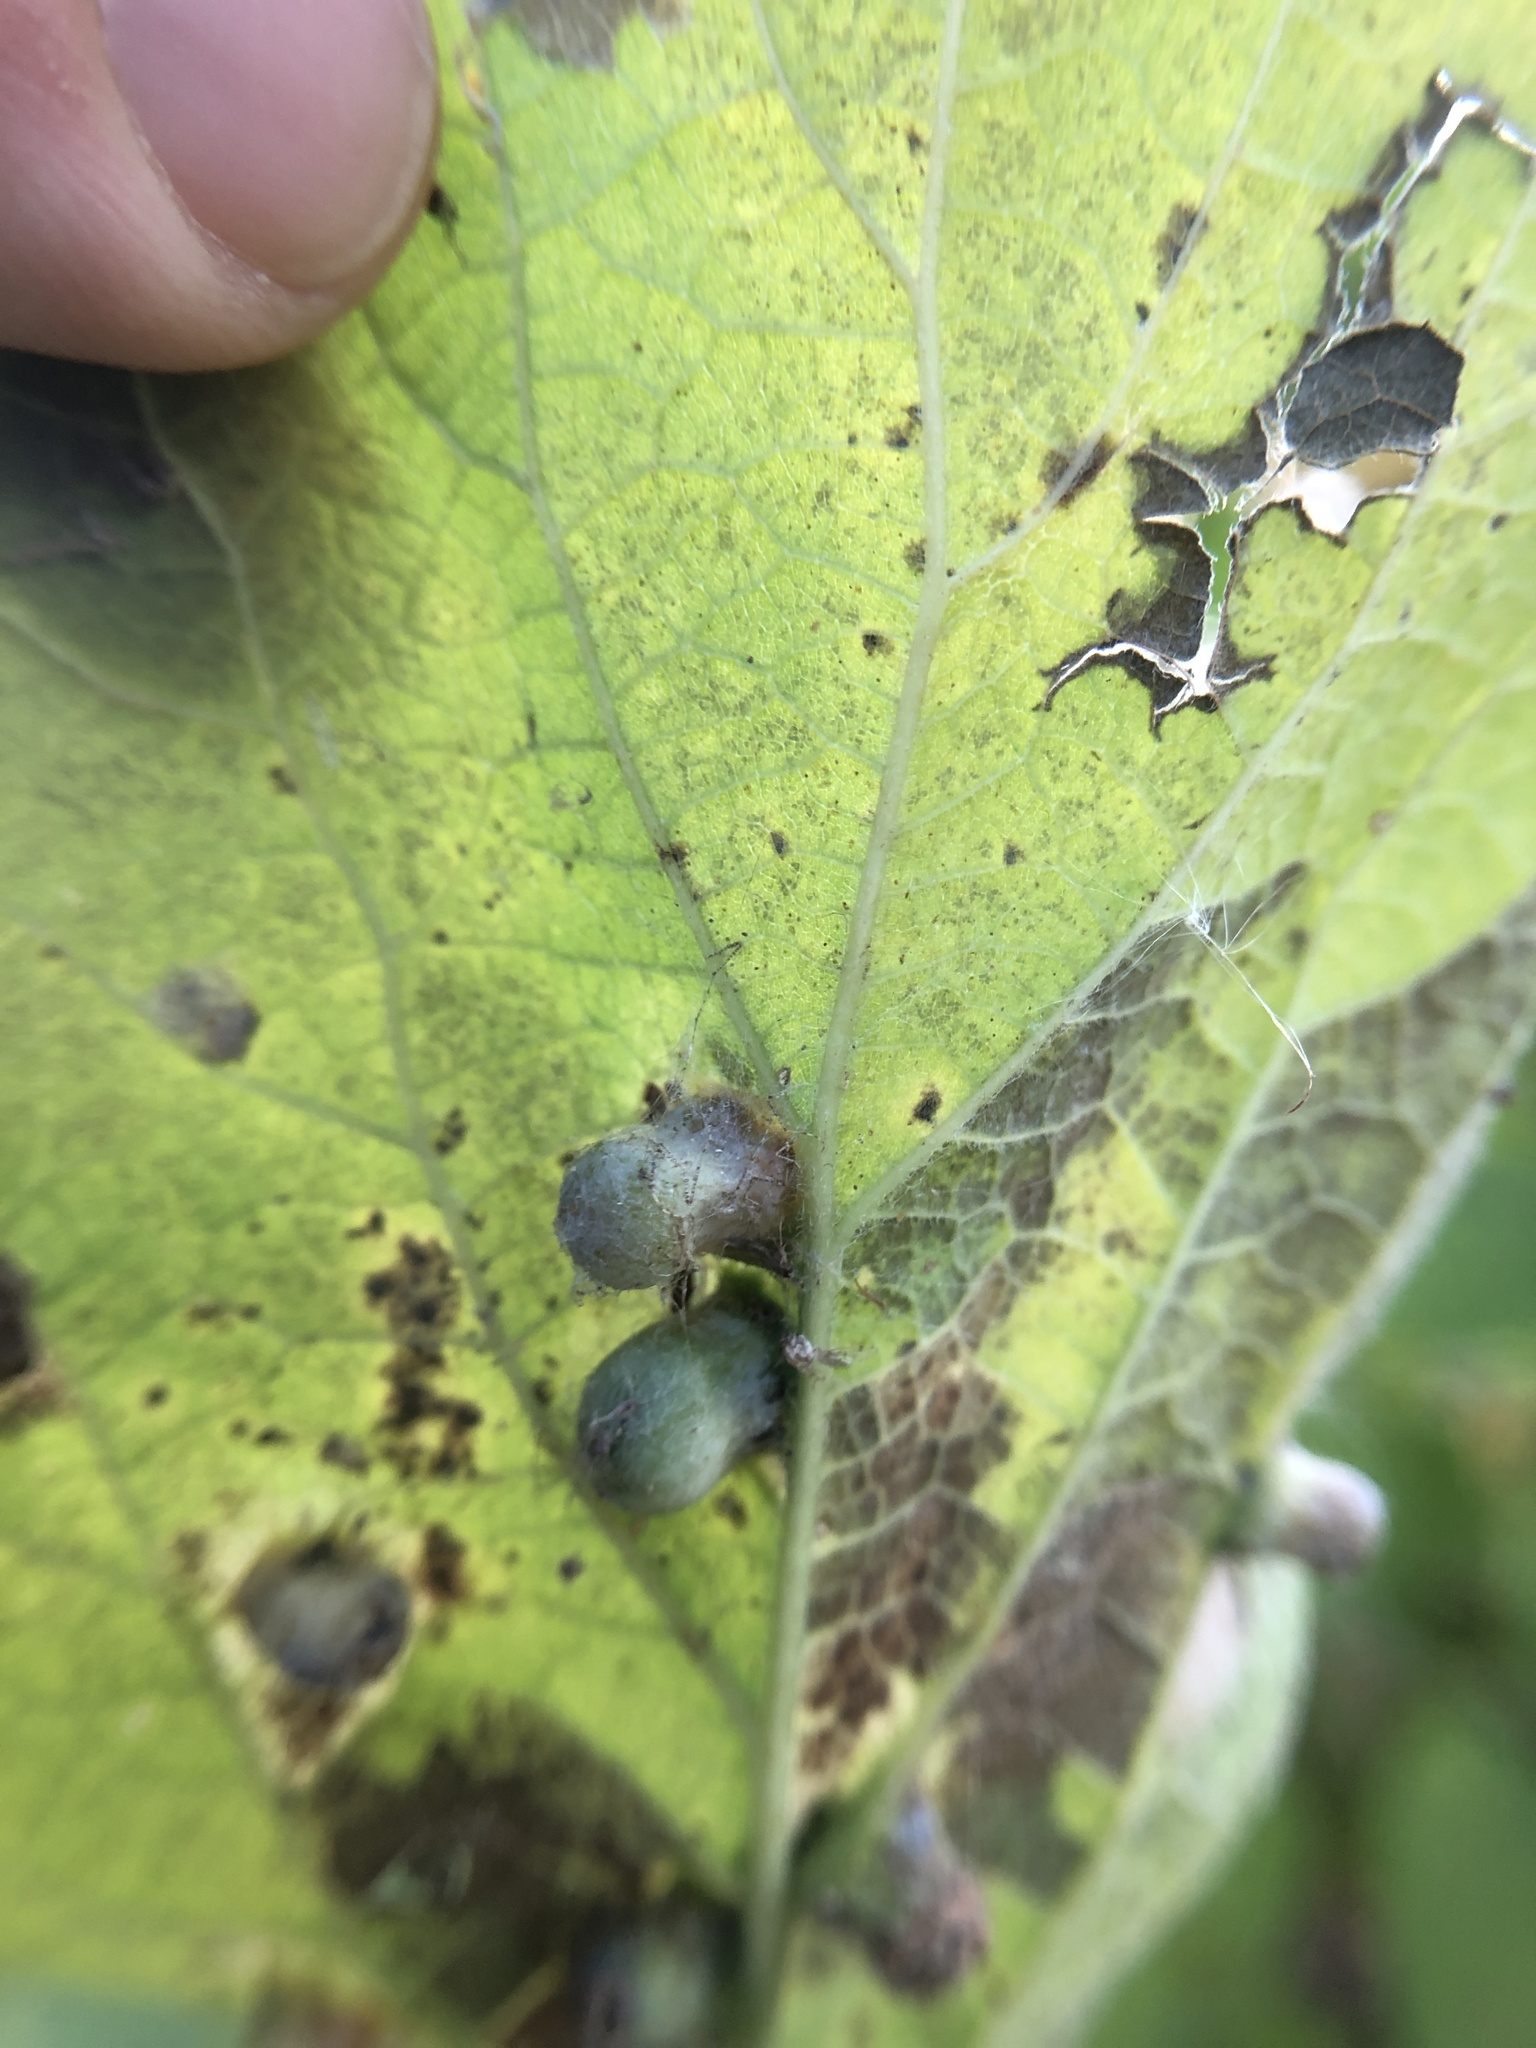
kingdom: Animalia
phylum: Arthropoda
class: Insecta
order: Hemiptera
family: Aphalaridae
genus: Pachypsylla
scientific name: Pachypsylla celtidismamma
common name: Hackberry nipplegall psyllid
